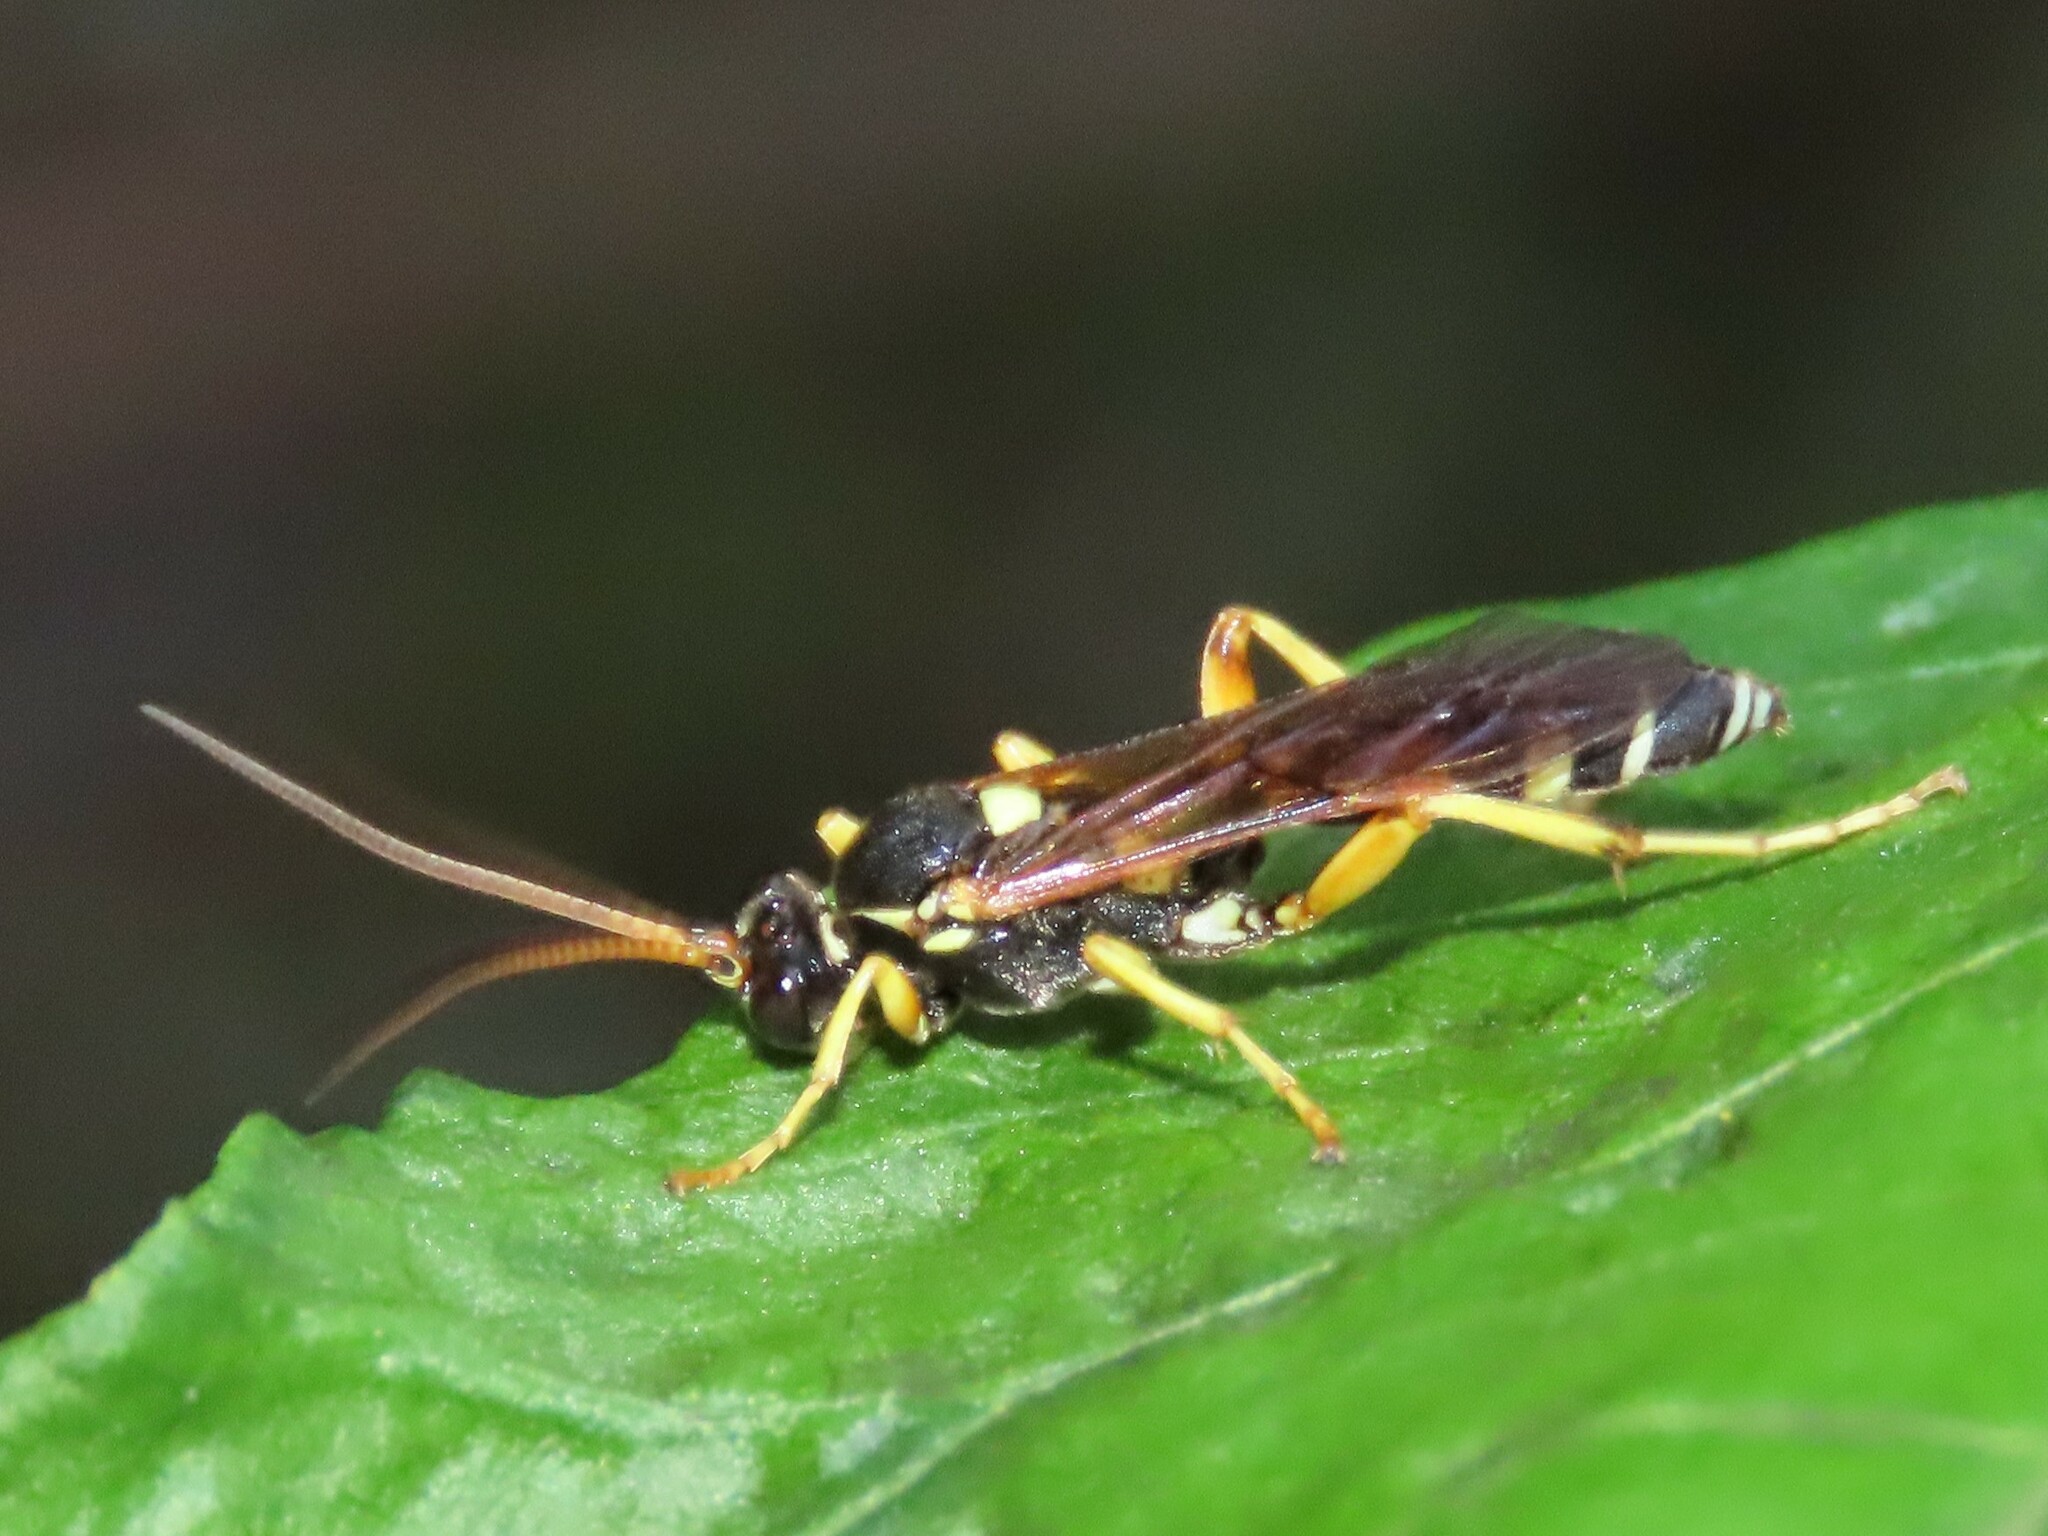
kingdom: Animalia
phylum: Arthropoda
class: Insecta
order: Hymenoptera
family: Ichneumonidae
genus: Ichneumon
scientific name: Ichneumon ambulatorius
